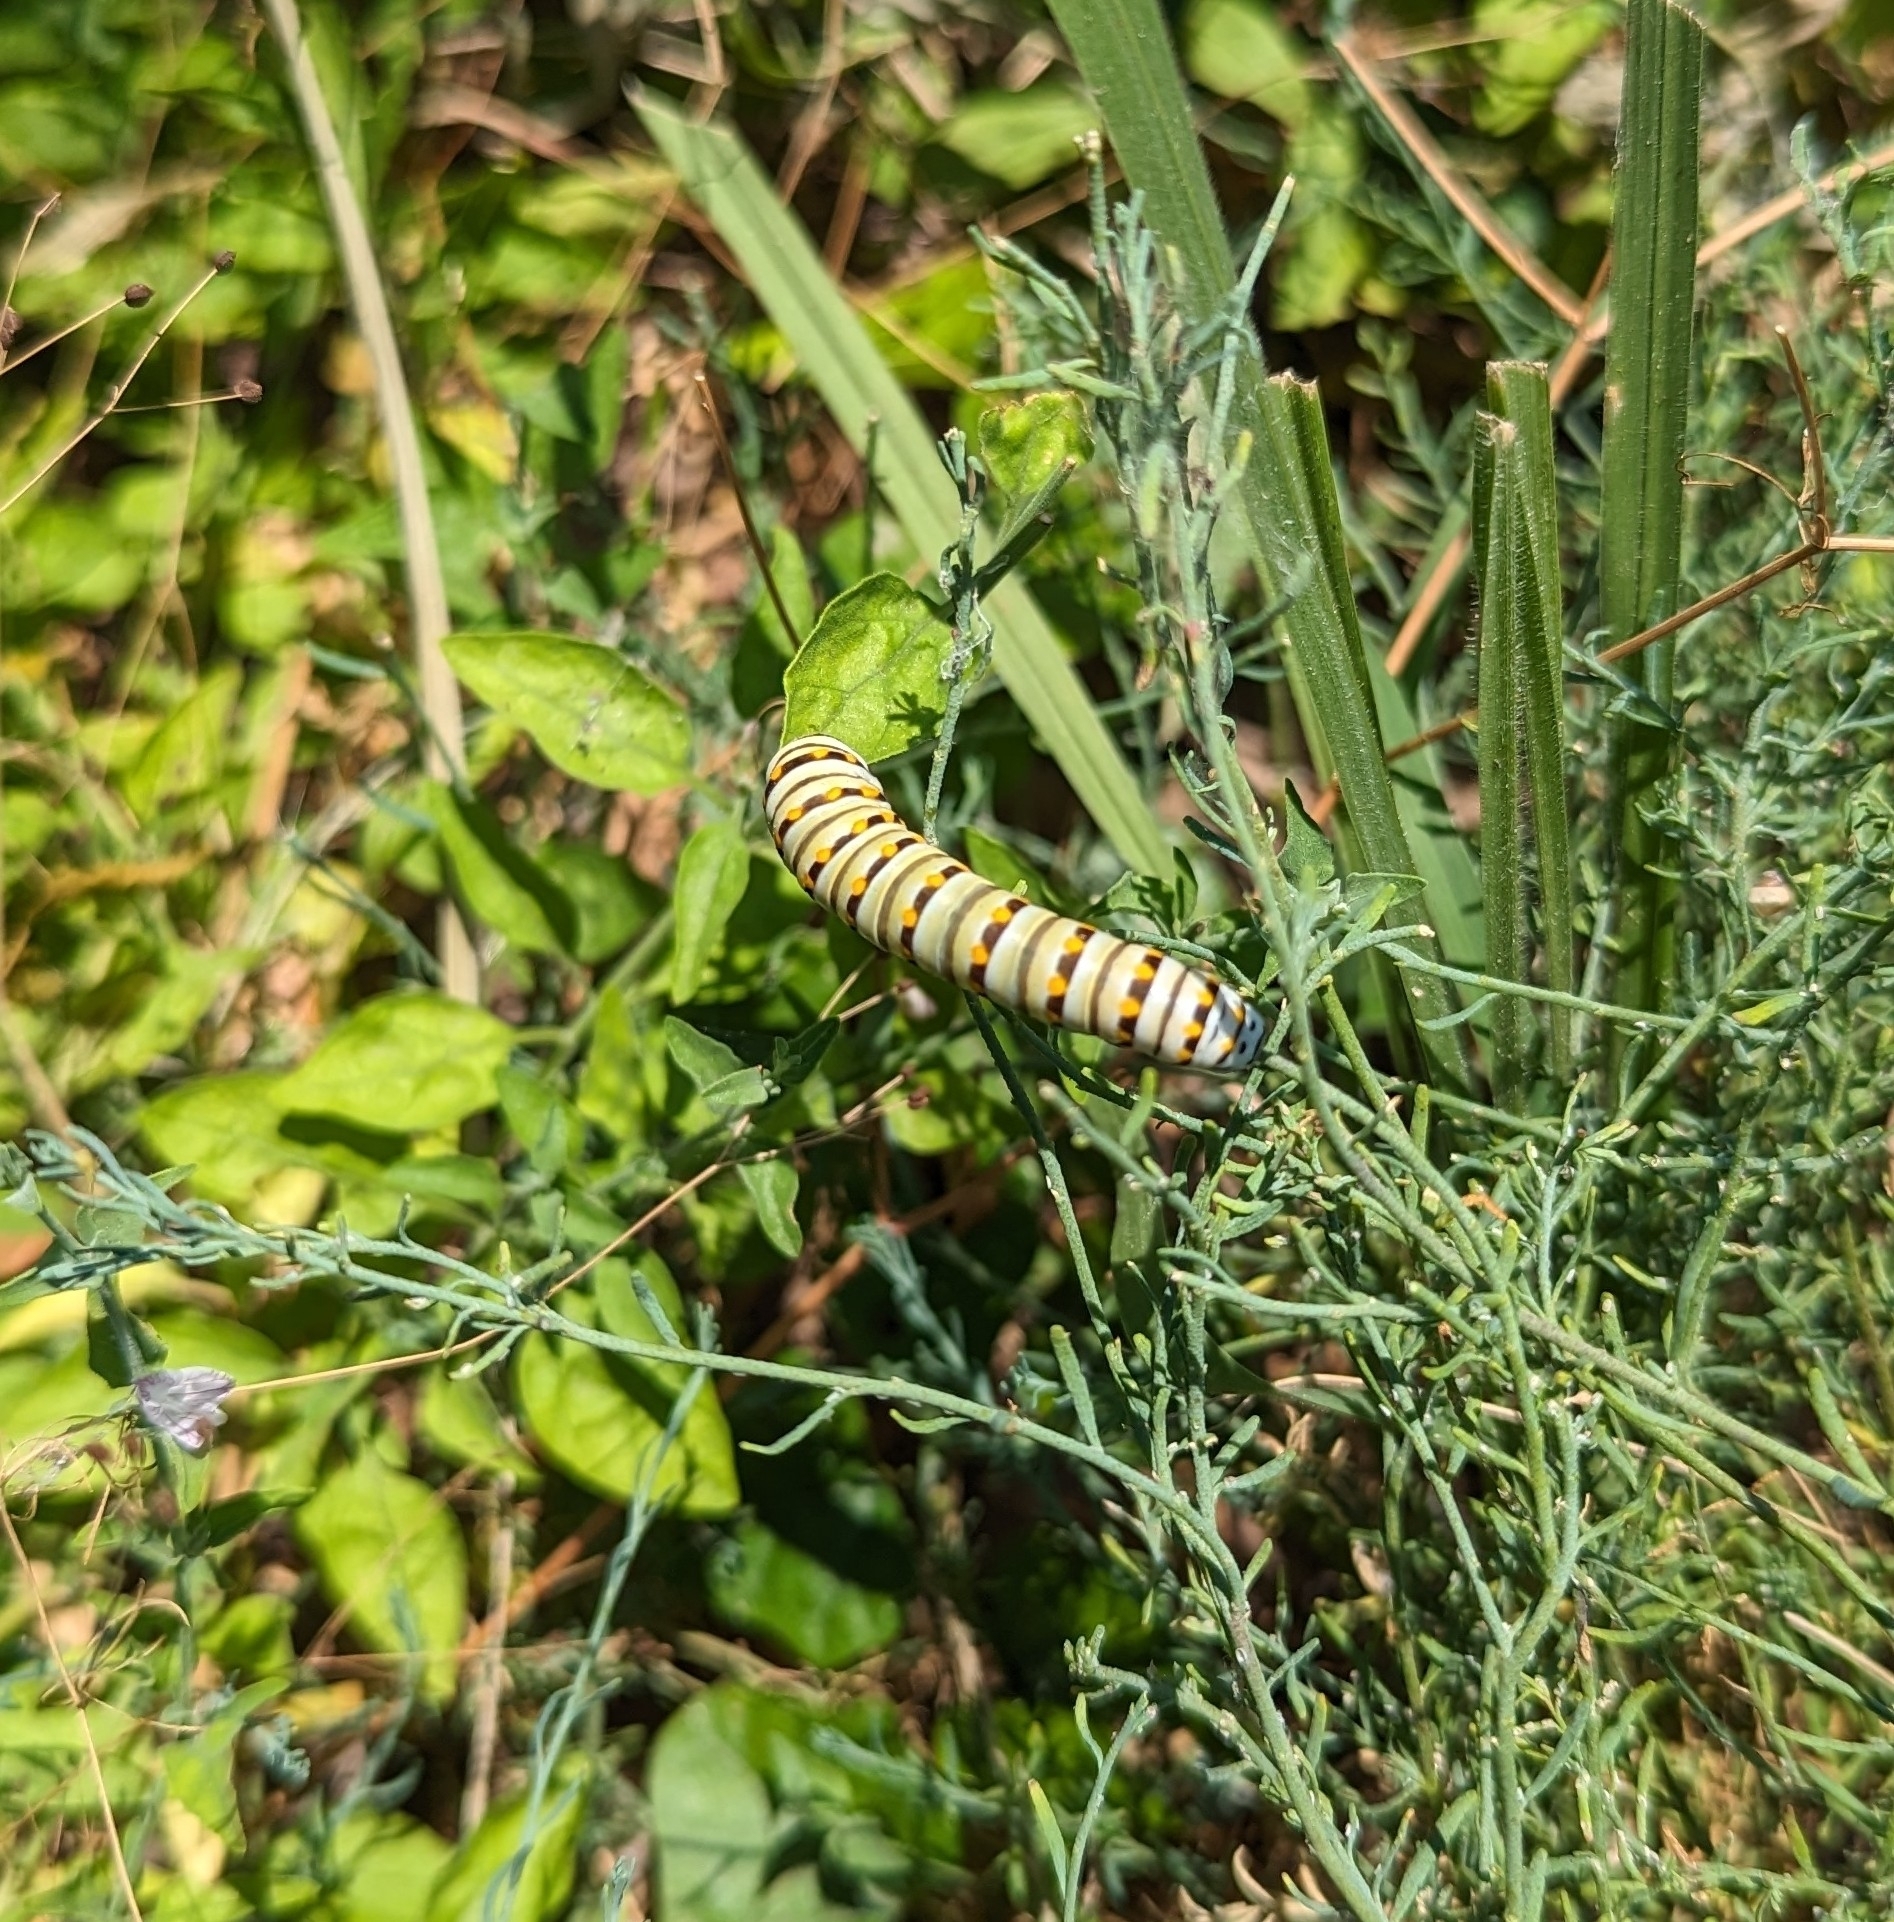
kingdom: Animalia
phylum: Arthropoda
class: Insecta
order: Lepidoptera
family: Papilionidae
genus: Papilio
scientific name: Papilio polyxenes
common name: Black swallowtail
